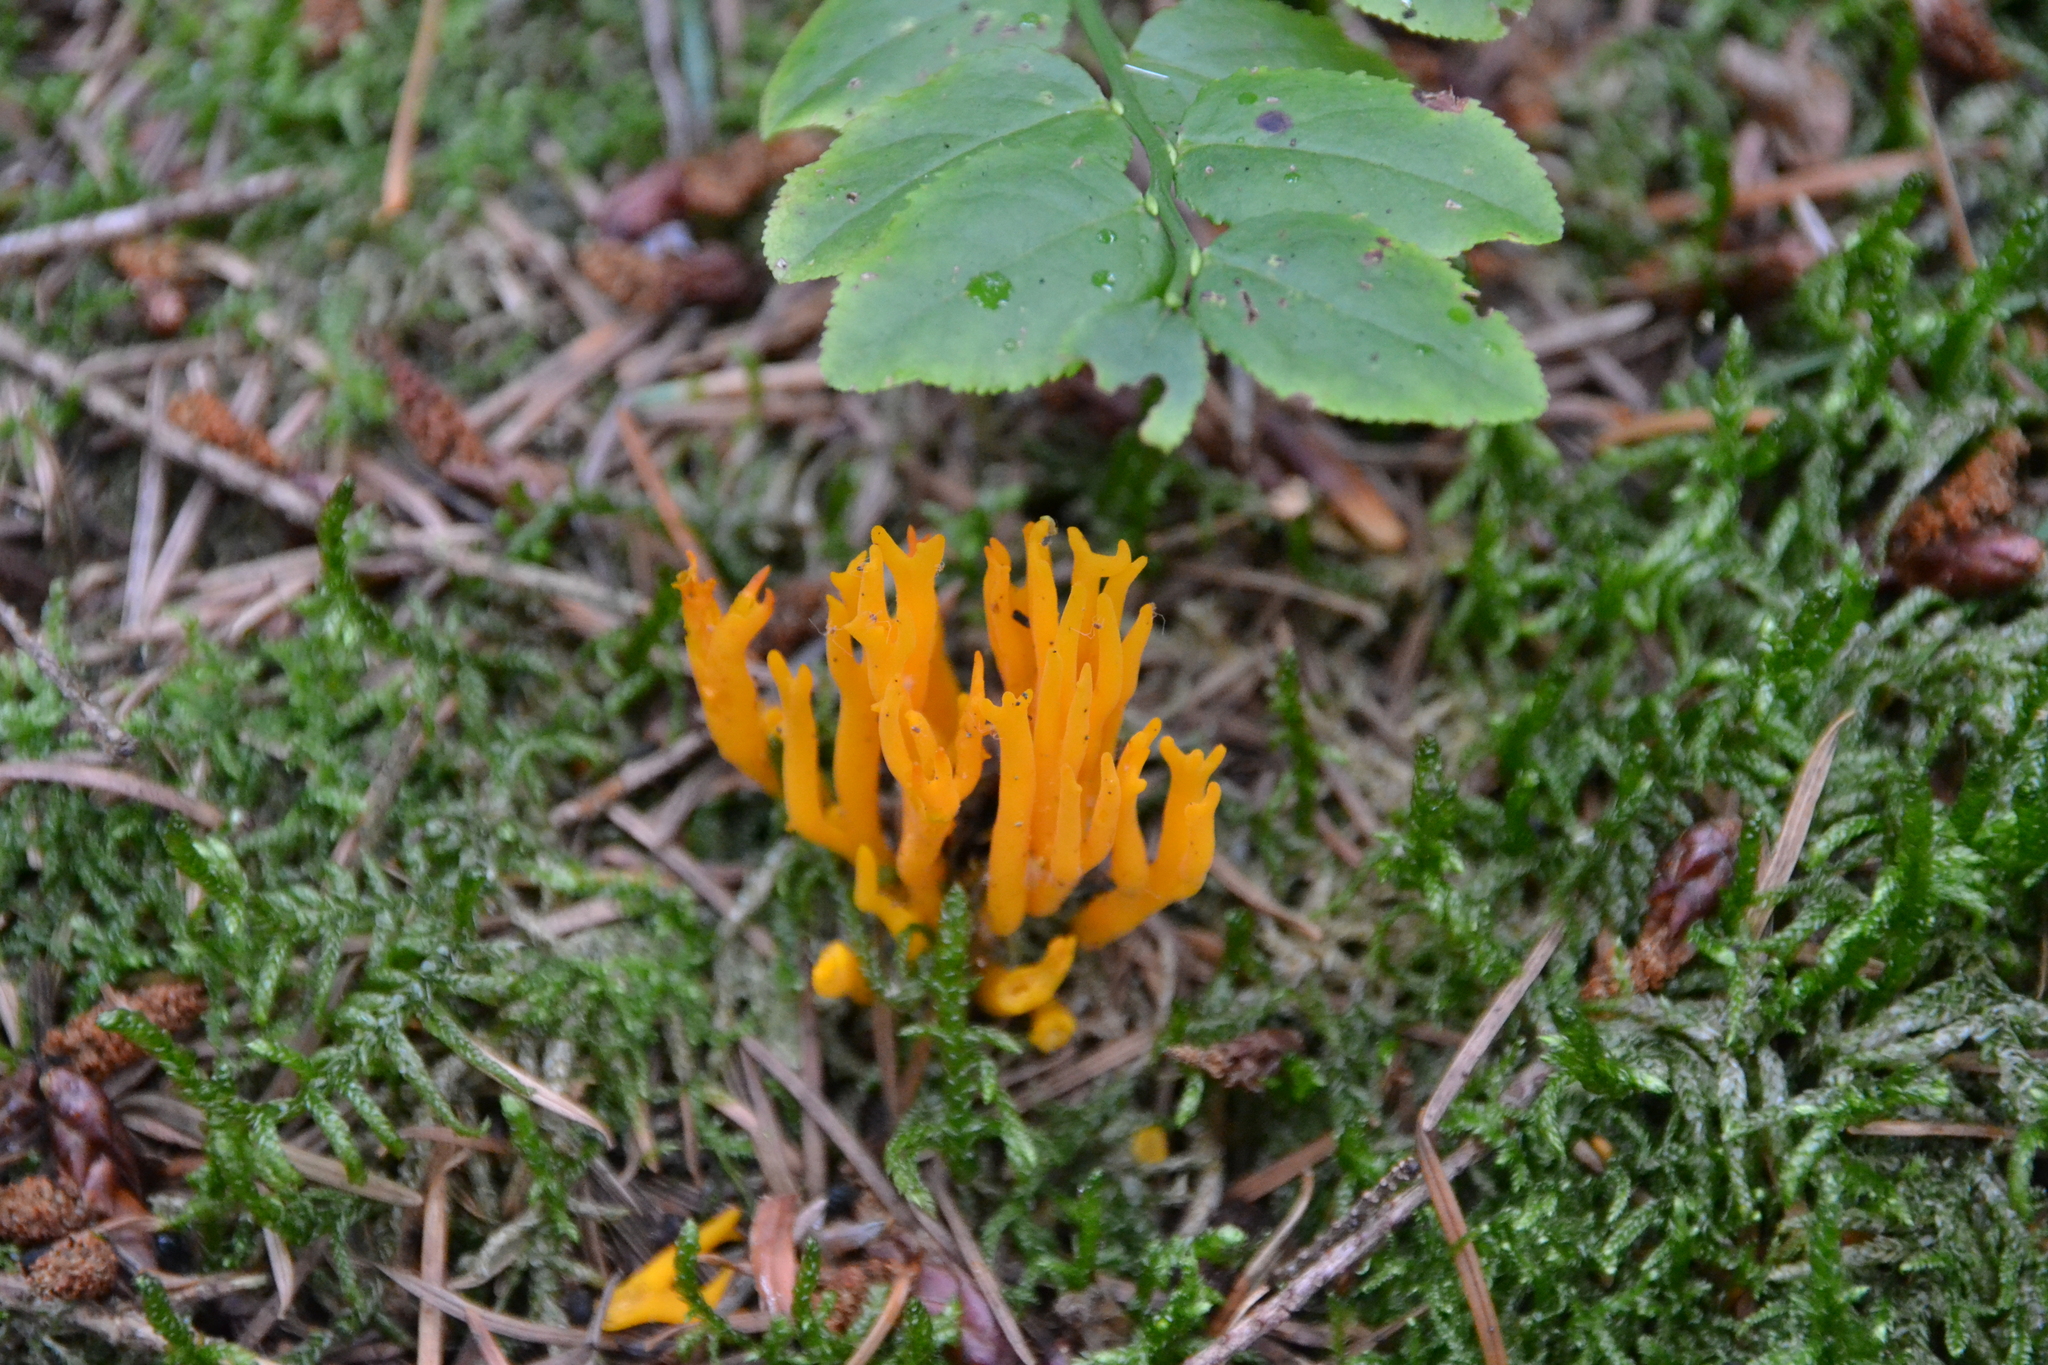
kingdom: Fungi
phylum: Basidiomycota
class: Dacrymycetes
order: Dacrymycetales
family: Dacrymycetaceae
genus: Calocera
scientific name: Calocera viscosa
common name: Yellow stagshorn
